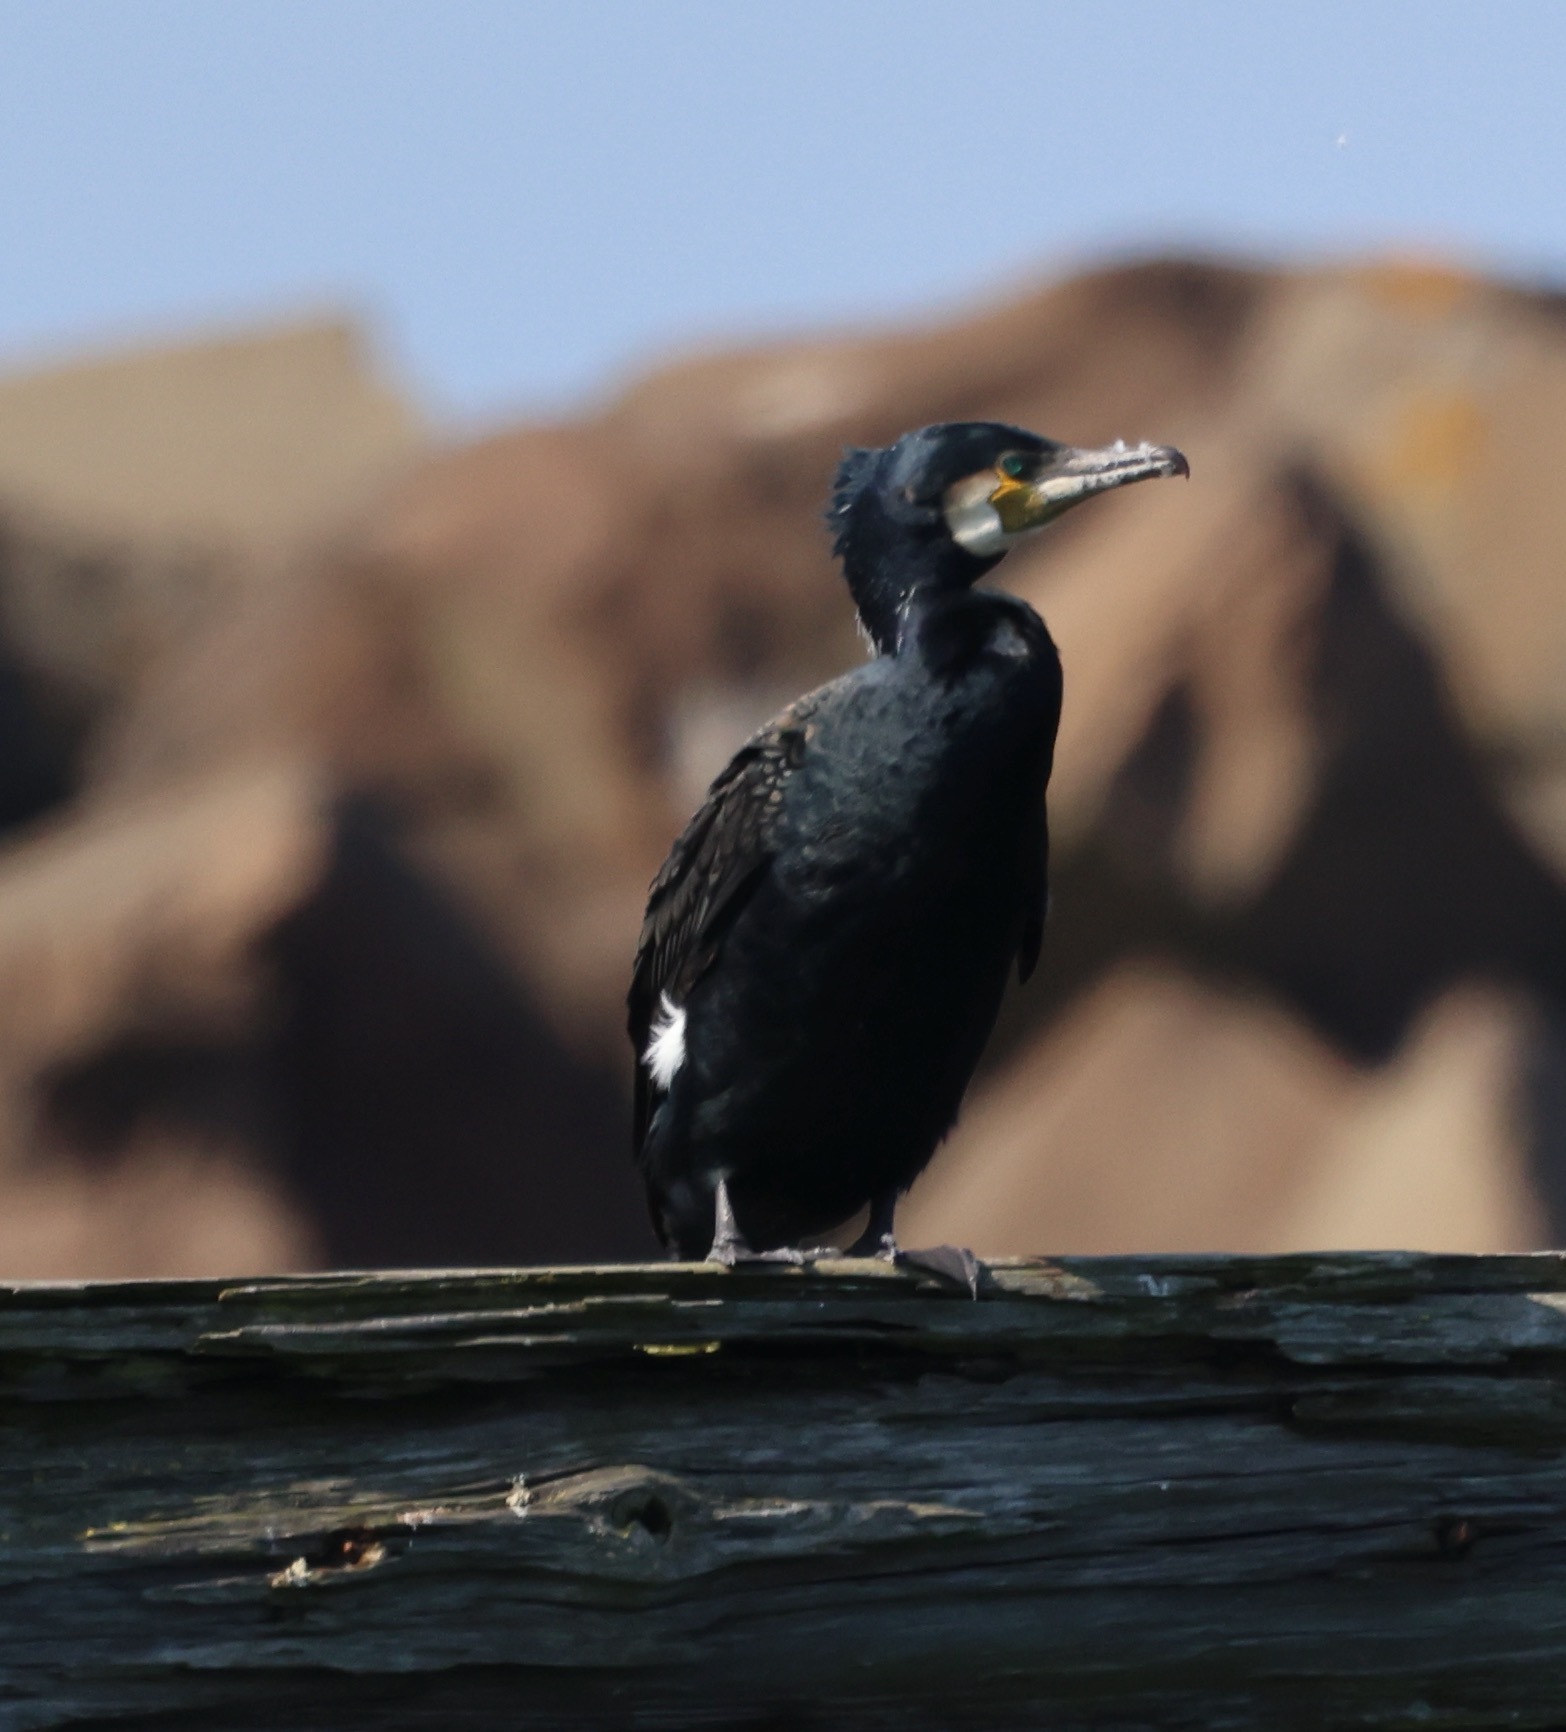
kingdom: Animalia
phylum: Chordata
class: Aves
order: Suliformes
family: Phalacrocoracidae
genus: Phalacrocorax
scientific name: Phalacrocorax carbo
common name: Great cormorant
